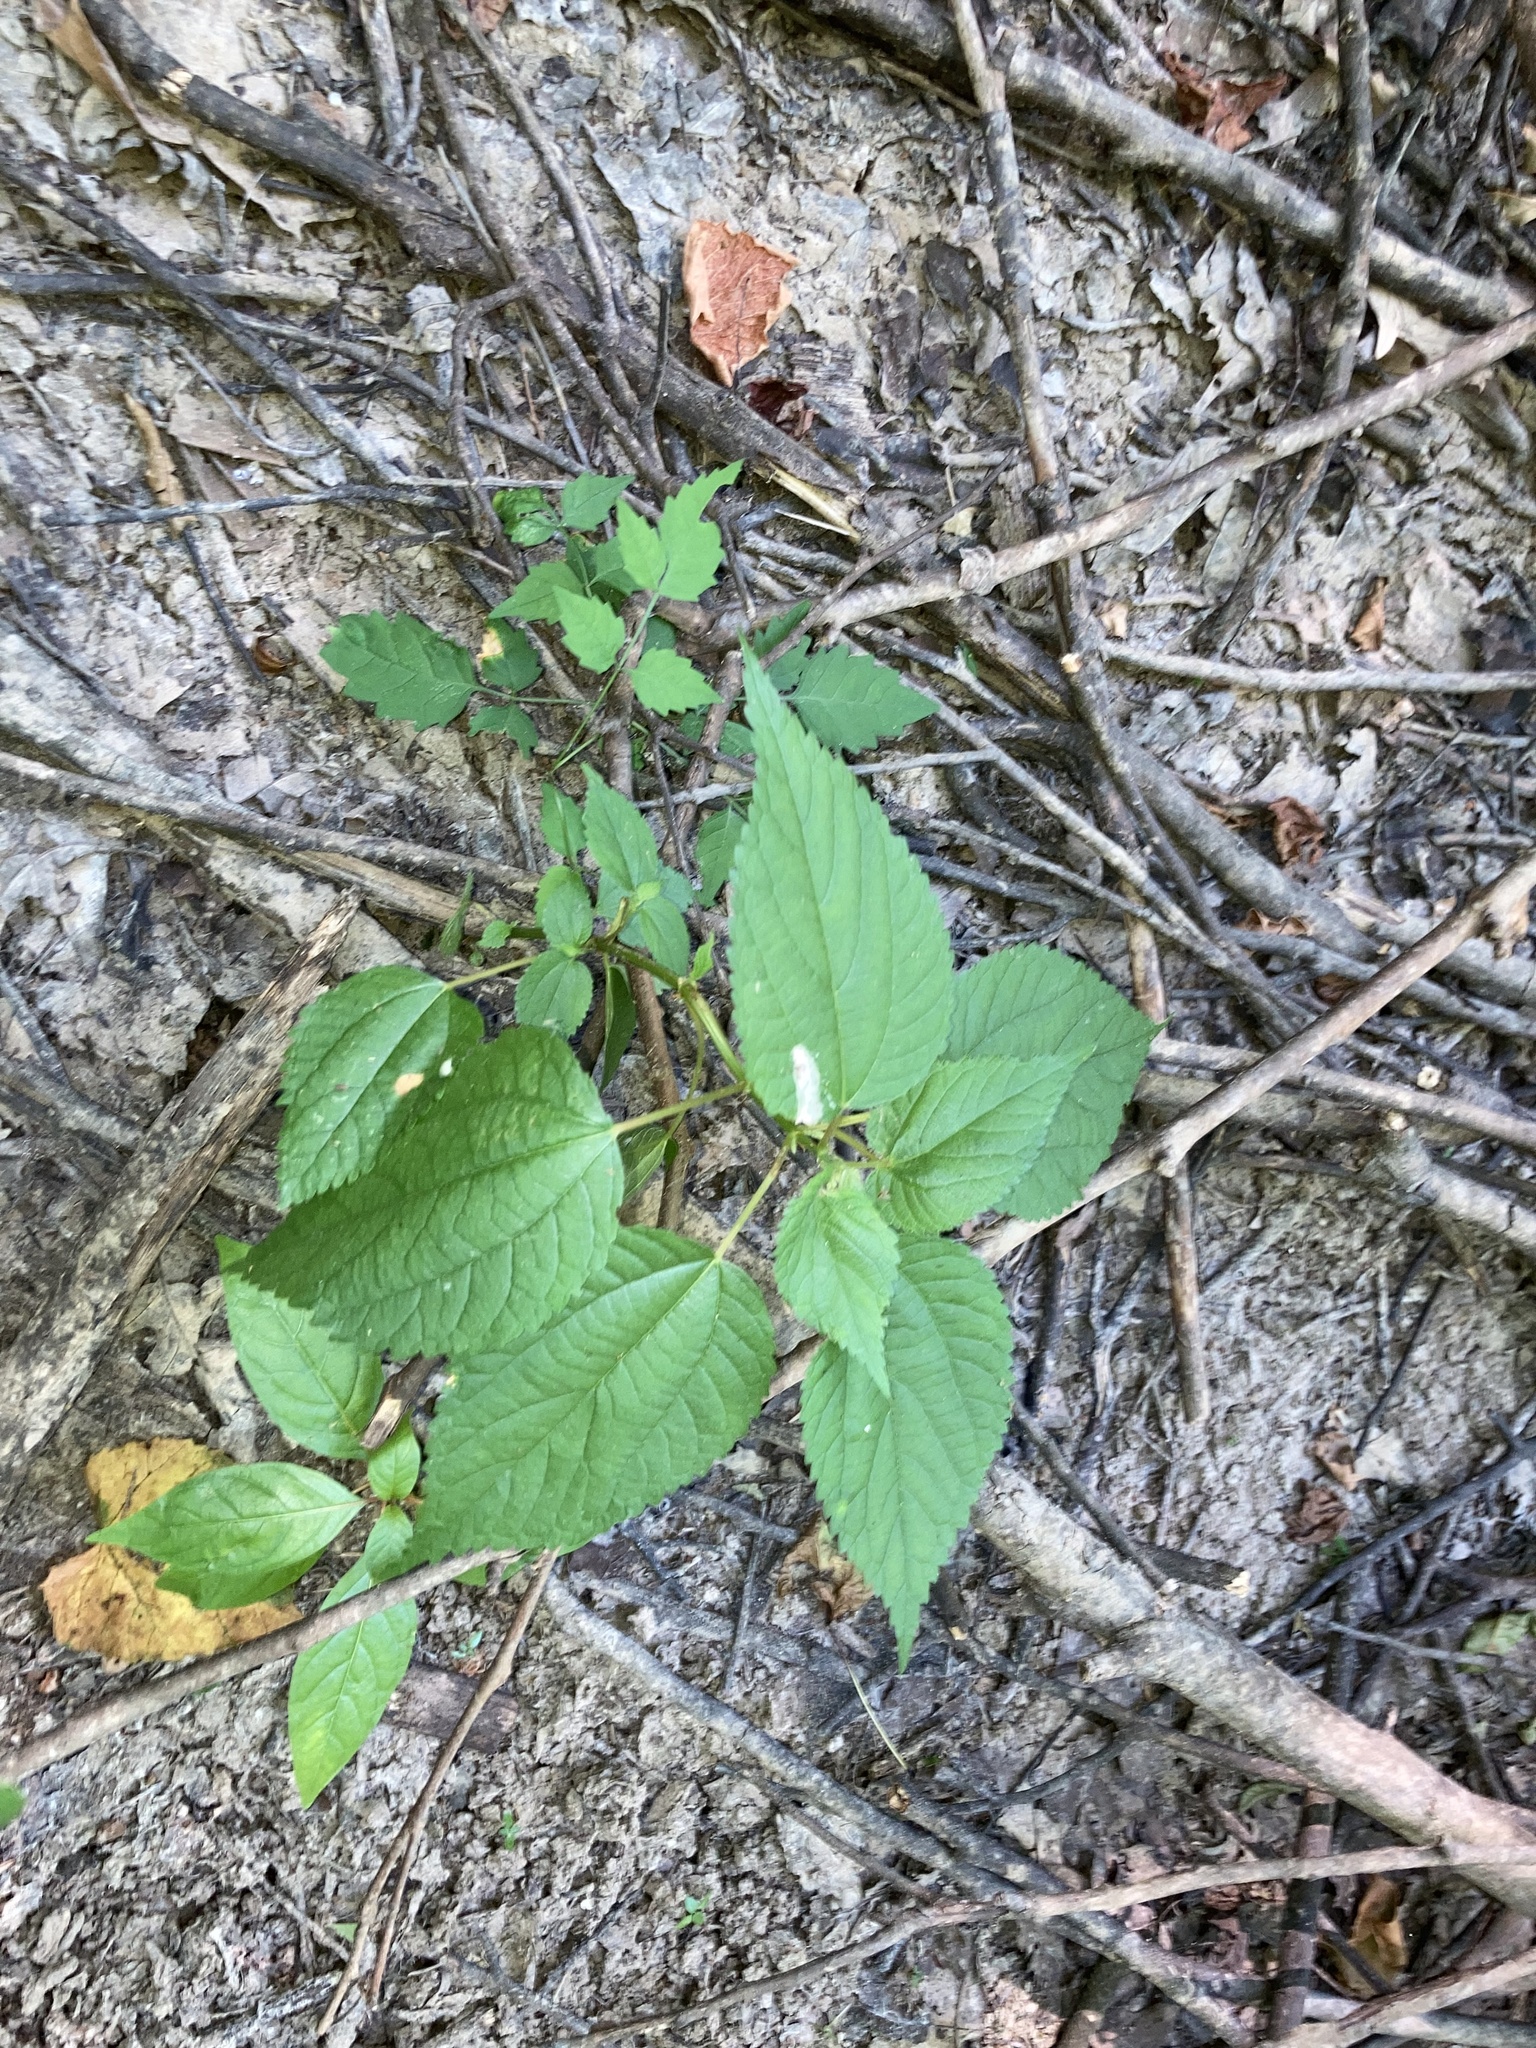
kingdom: Plantae
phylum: Tracheophyta
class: Magnoliopsida
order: Rosales
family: Urticaceae
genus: Boehmeria
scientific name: Boehmeria cylindrica
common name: Bog-hemp
